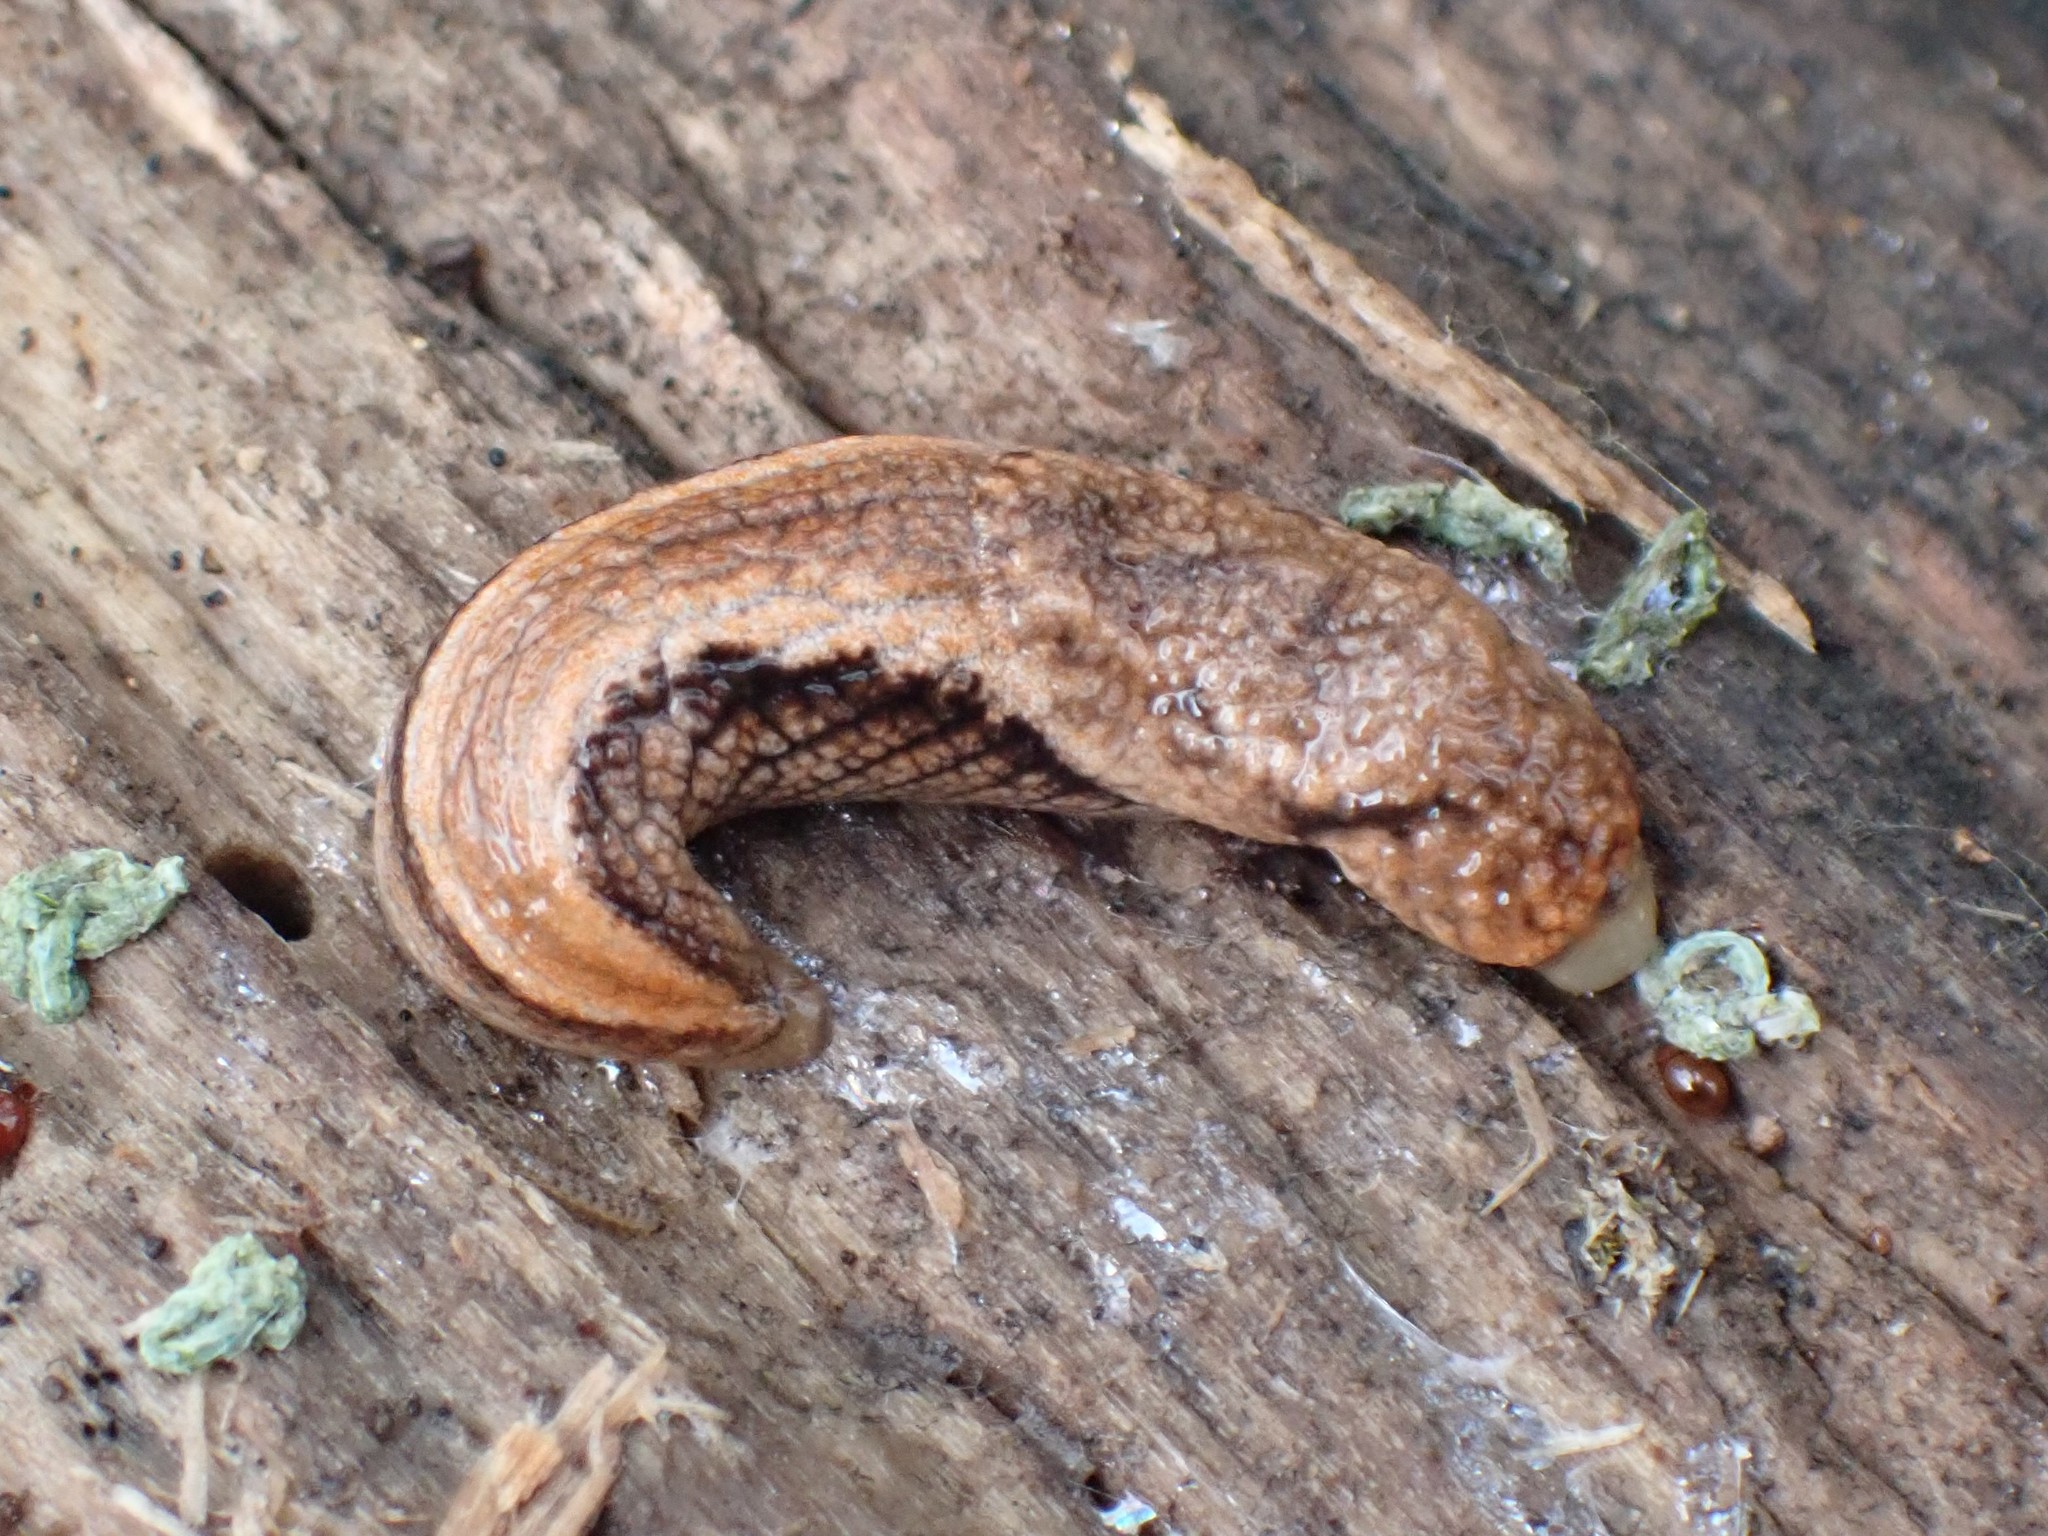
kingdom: Animalia
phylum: Mollusca
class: Gastropoda
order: Stylommatophora
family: Ariolimacidae
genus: Prophysaon
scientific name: Prophysaon vanattae
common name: Scarletback taildropper
